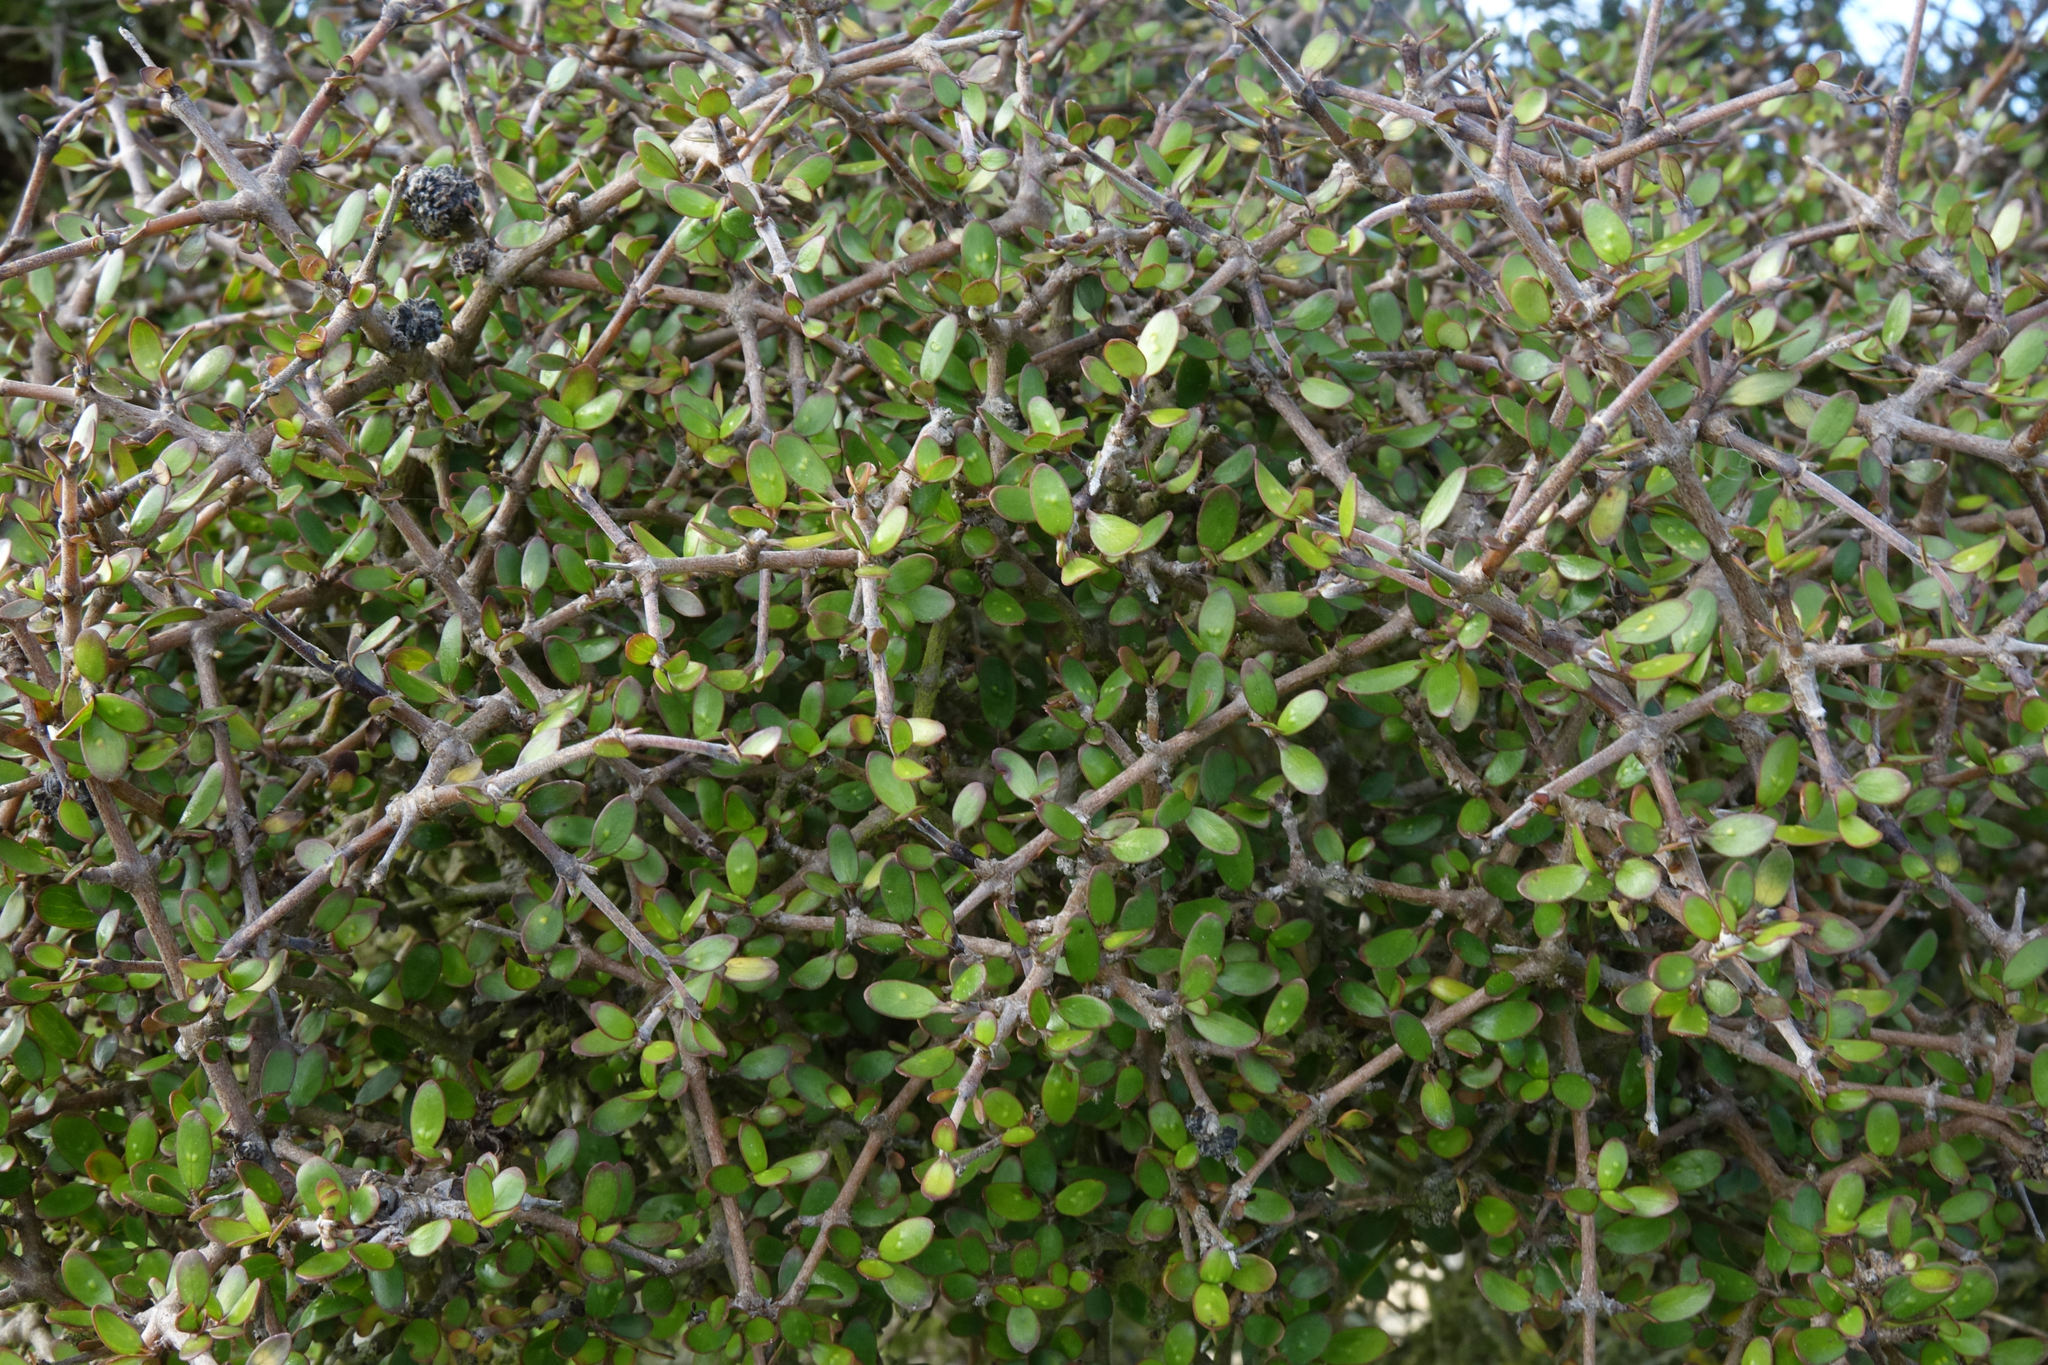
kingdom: Plantae
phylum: Tracheophyta
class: Magnoliopsida
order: Gentianales
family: Rubiaceae
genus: Coprosma
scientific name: Coprosma propinqua
